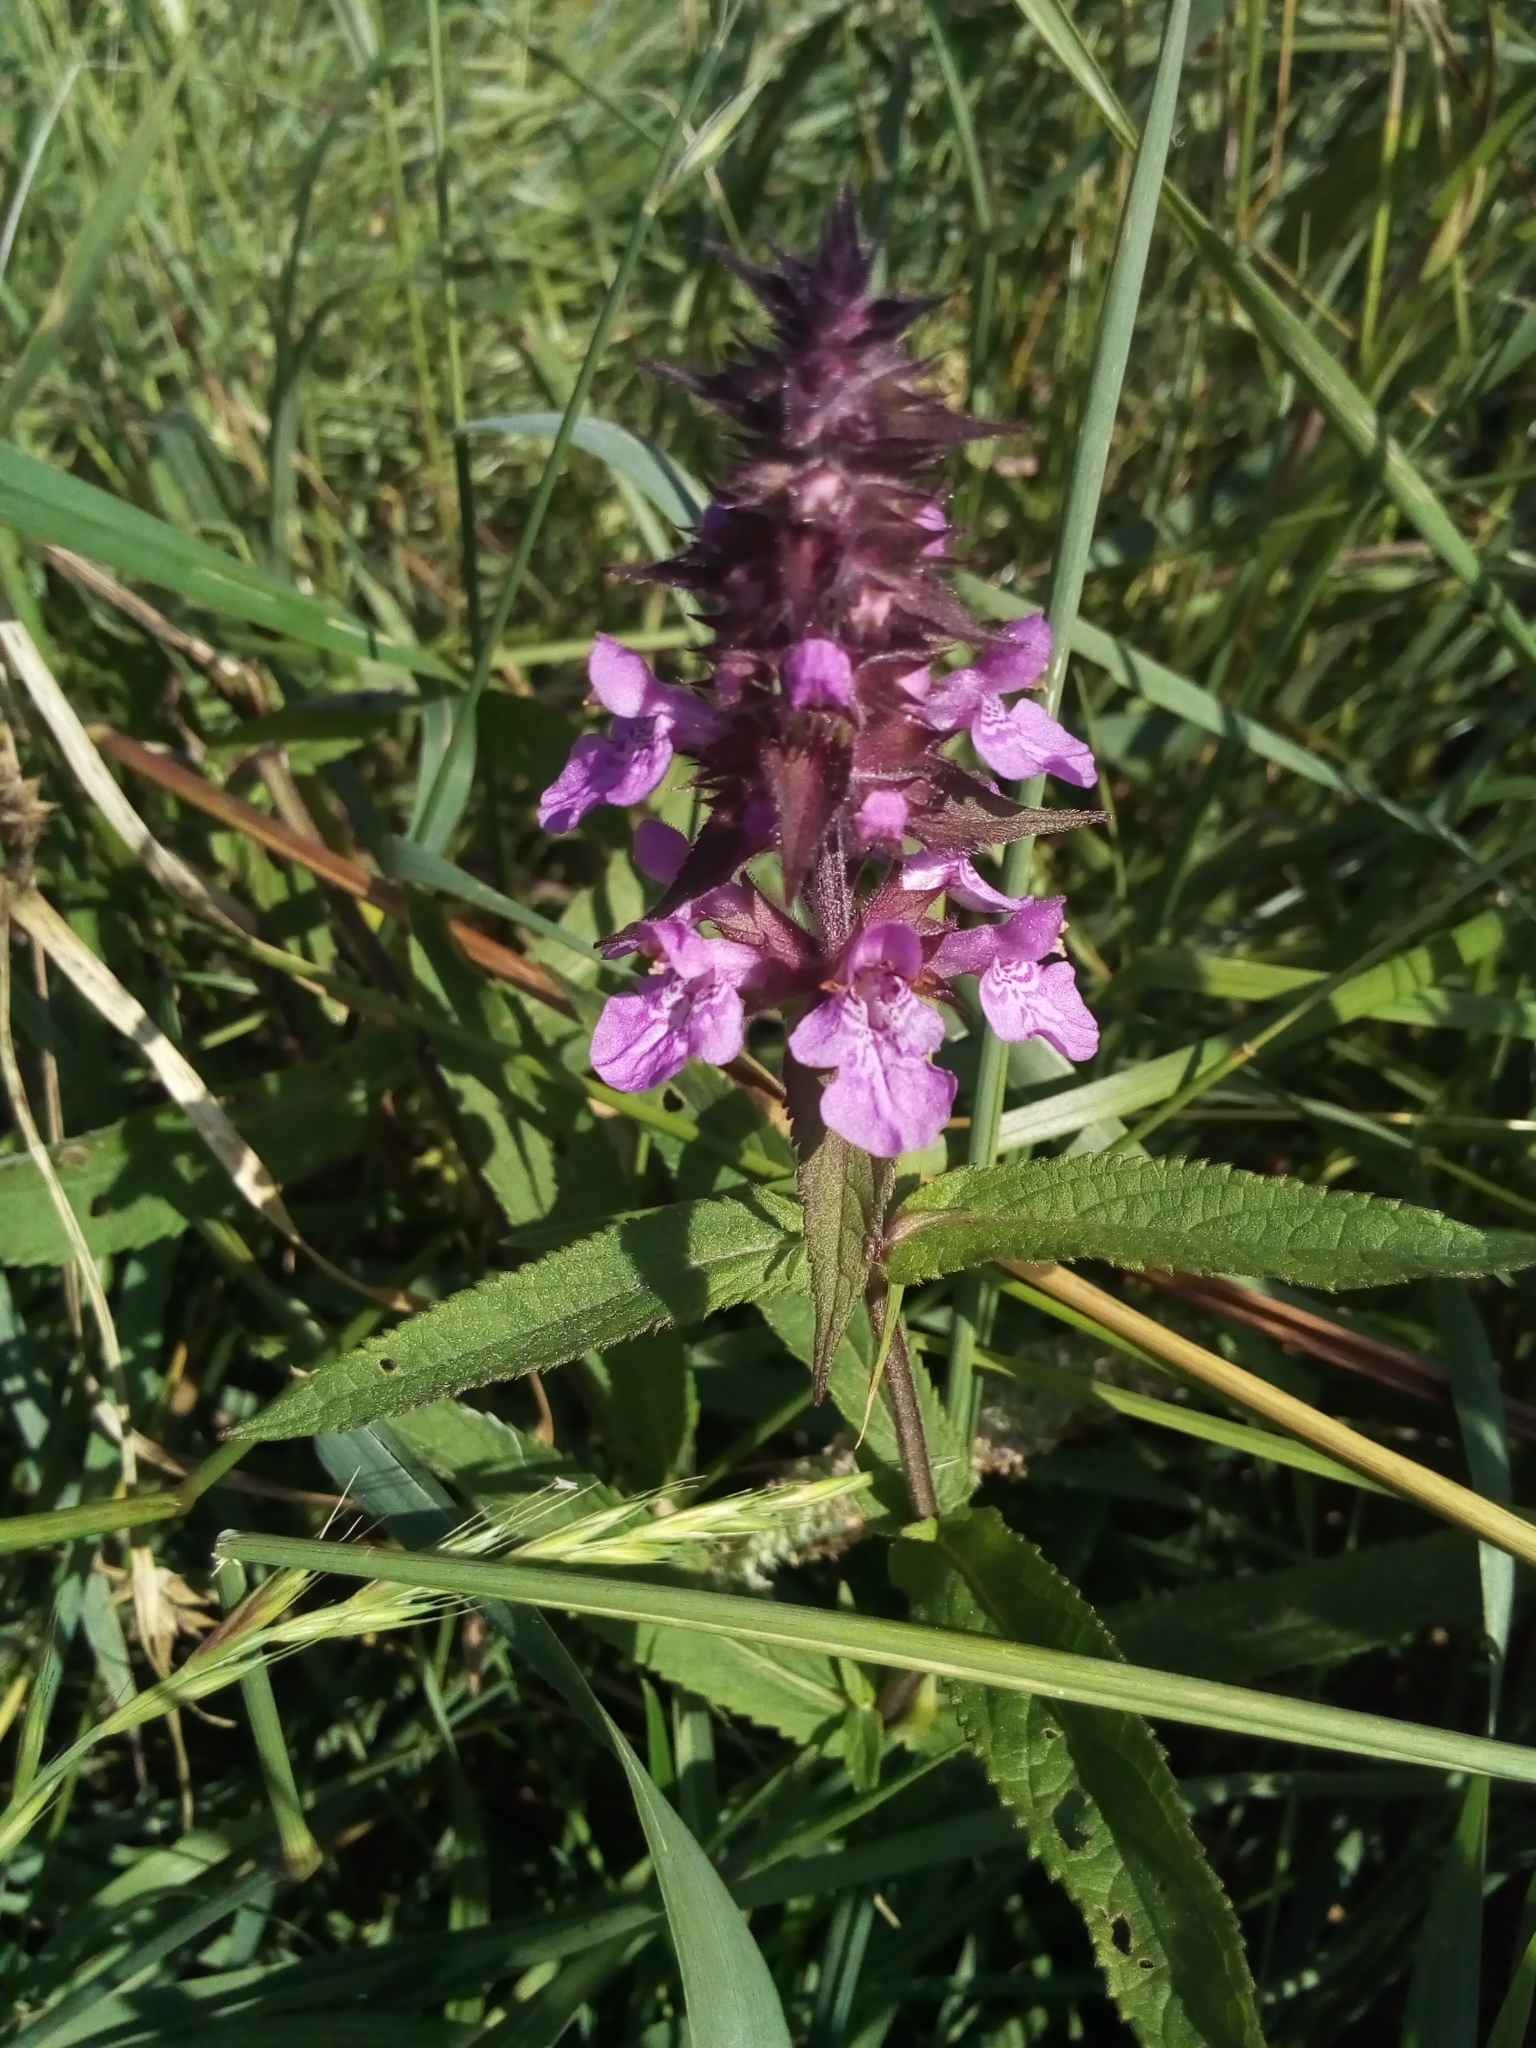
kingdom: Plantae
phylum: Tracheophyta
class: Magnoliopsida
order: Lamiales
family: Lamiaceae
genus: Stachys
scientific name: Stachys palustris
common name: Marsh woundwort
